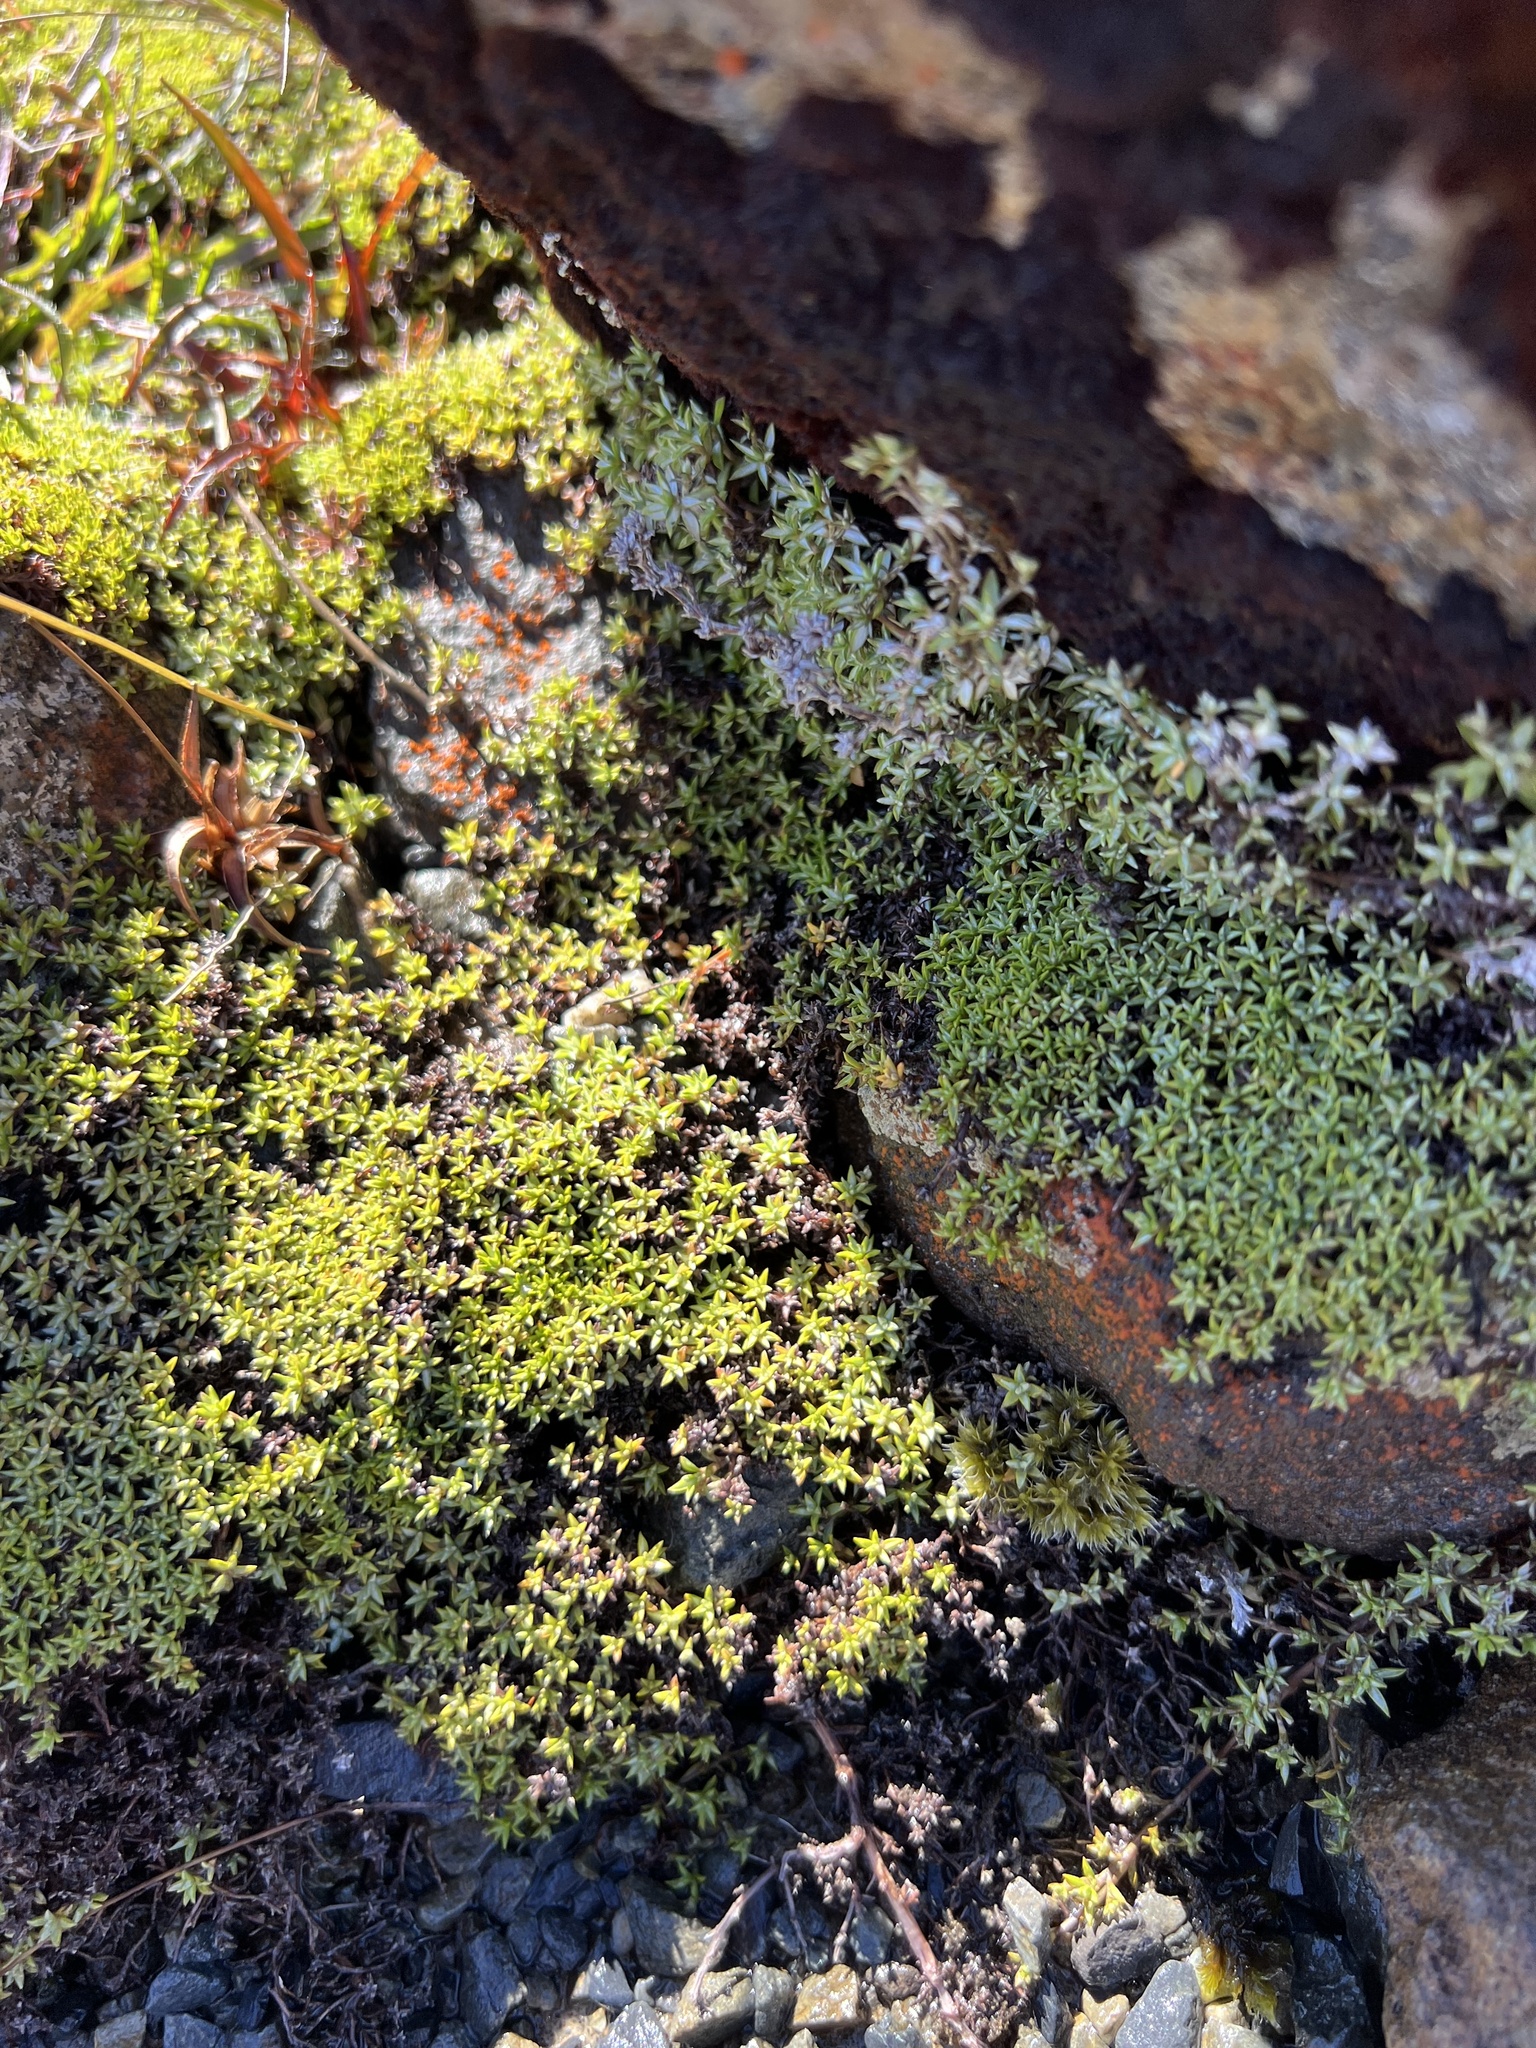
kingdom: Plantae
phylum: Tracheophyta
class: Magnoliopsida
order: Asterales
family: Asteraceae
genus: Raoulia
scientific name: Raoulia tenuicaulis
